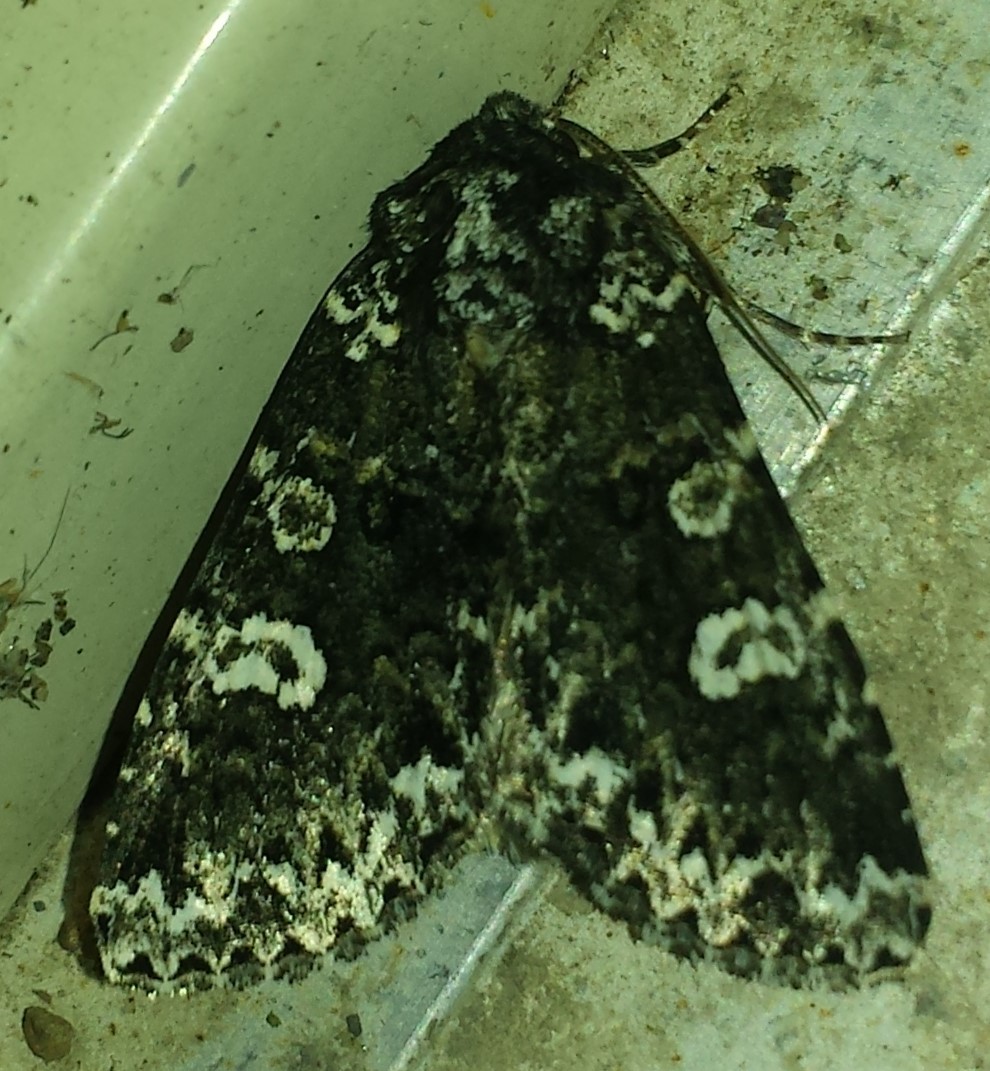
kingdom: Animalia
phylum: Arthropoda
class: Insecta
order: Lepidoptera
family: Noctuidae
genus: Melanchra
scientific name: Melanchra adjuncta
